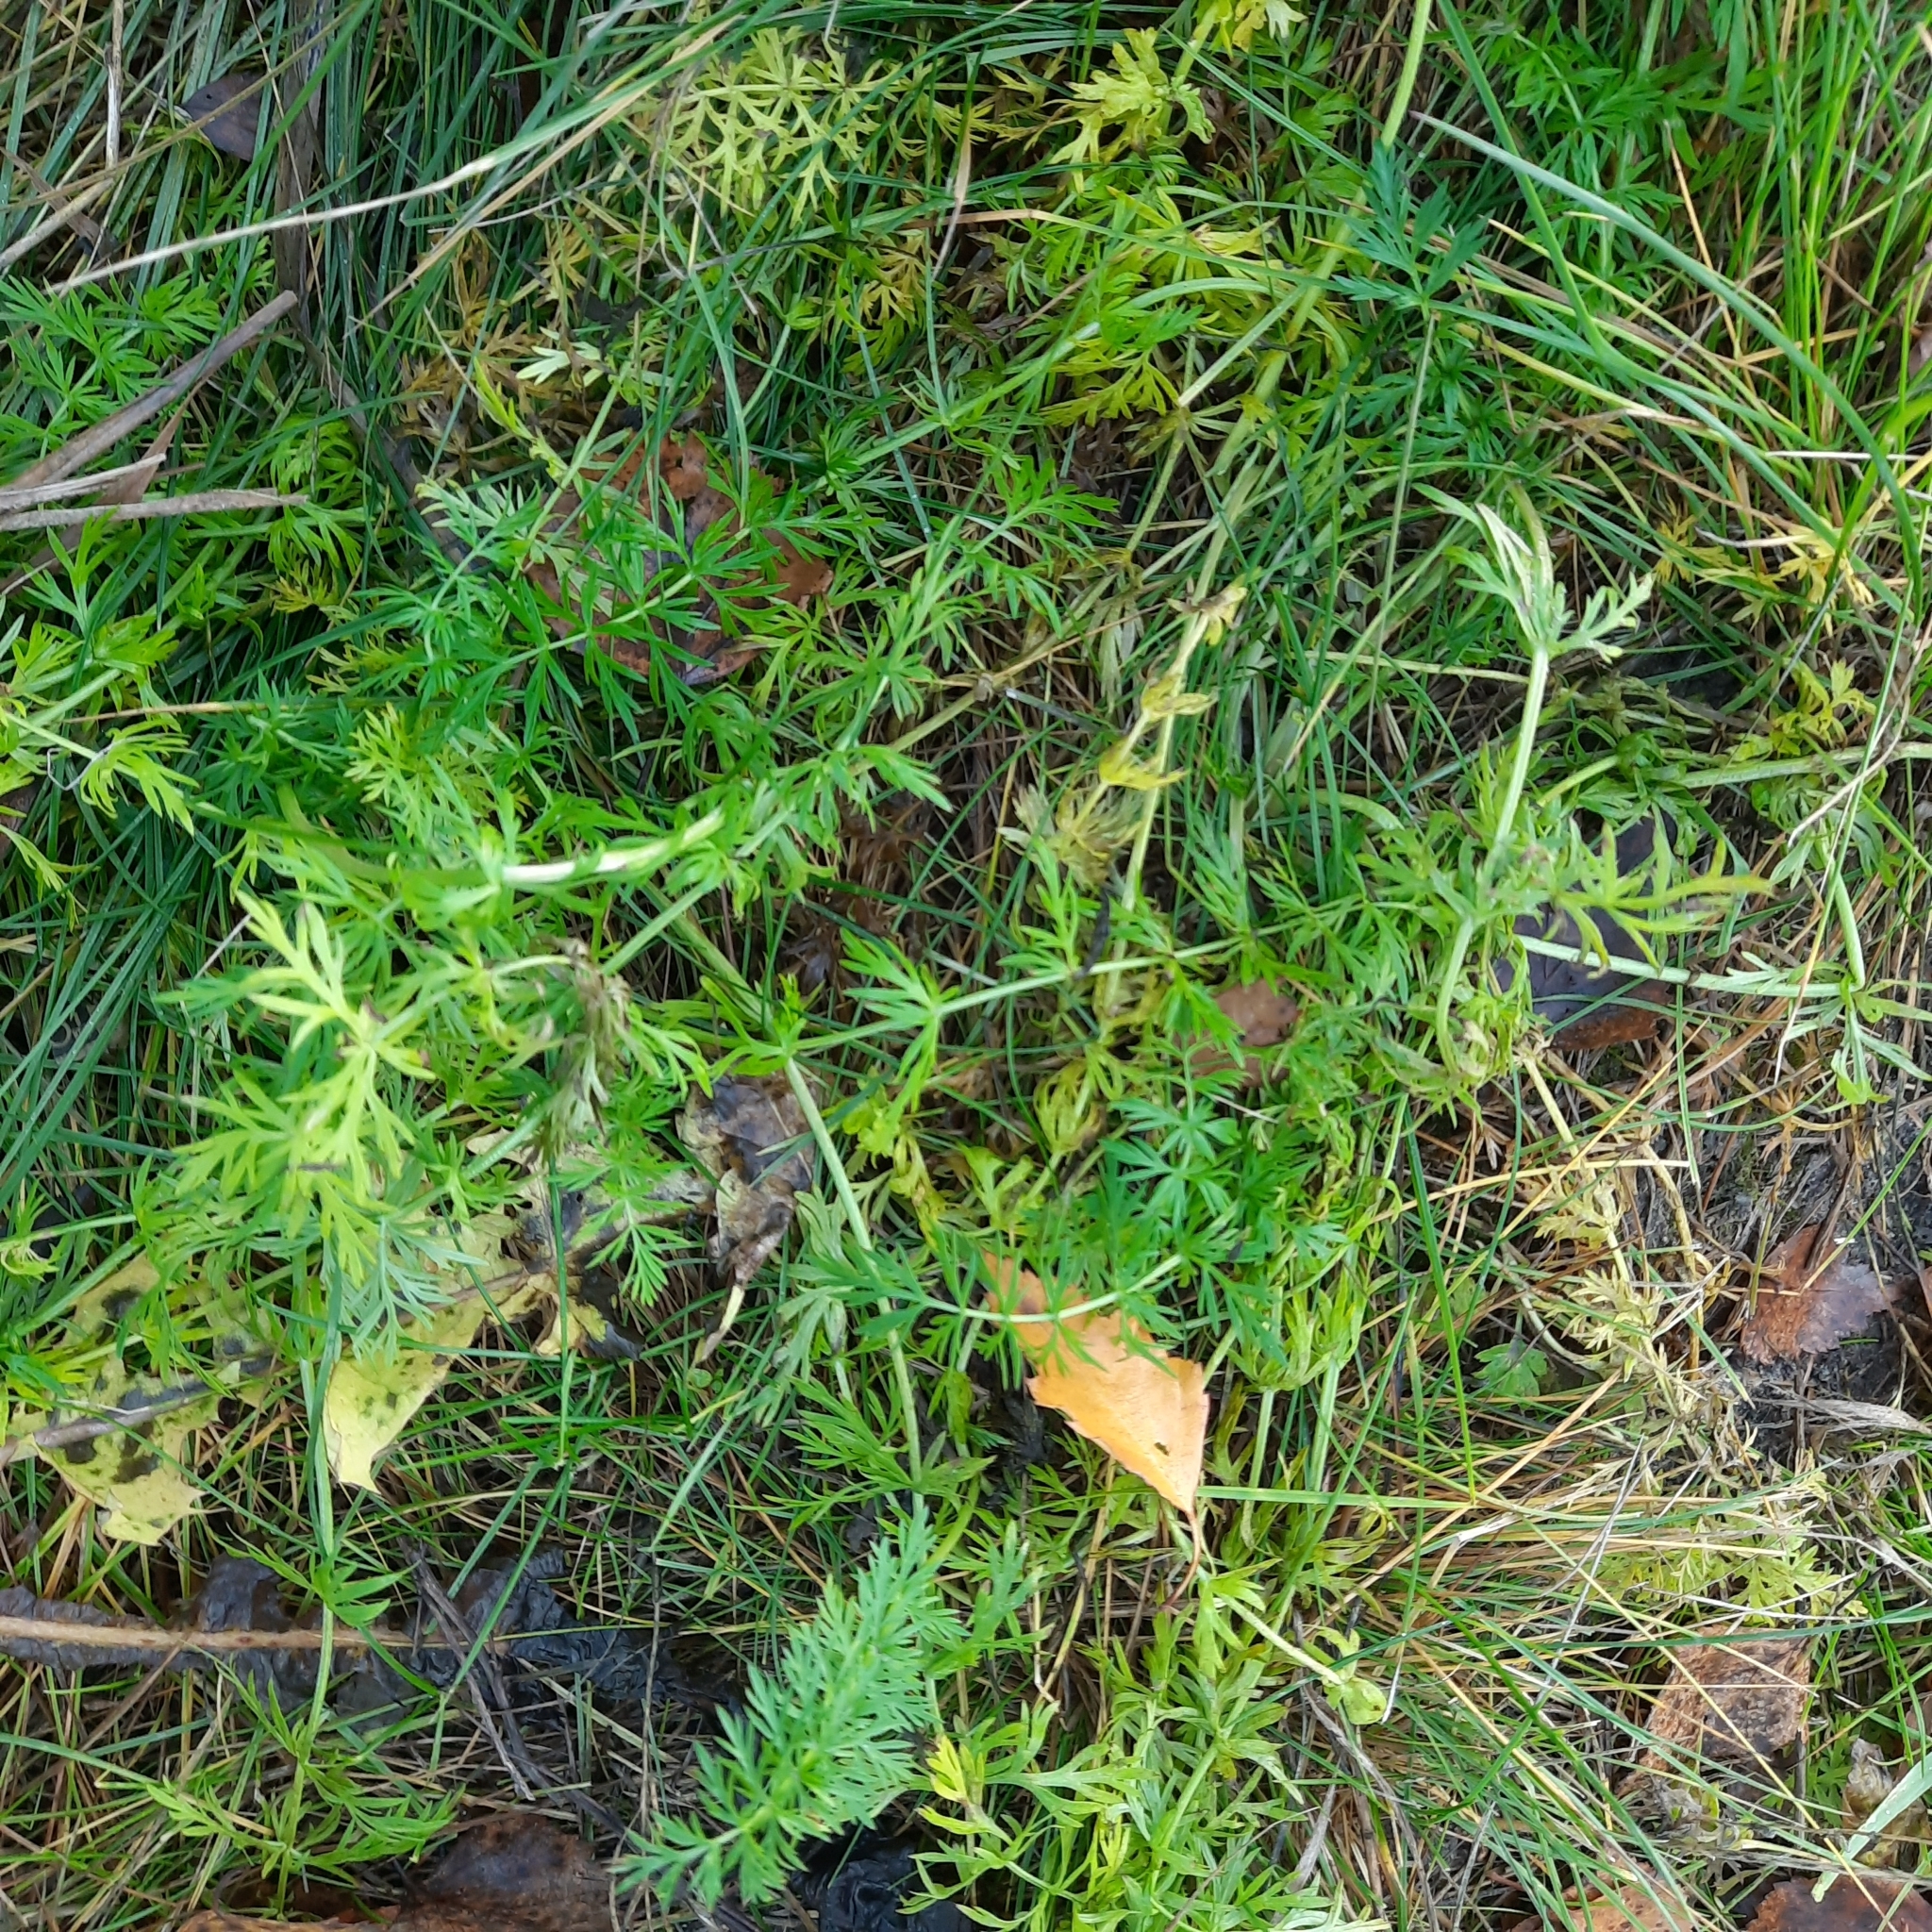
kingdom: Plantae
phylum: Tracheophyta
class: Magnoliopsida
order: Apiales
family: Apiaceae
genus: Carum
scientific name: Carum carvi
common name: Caraway
